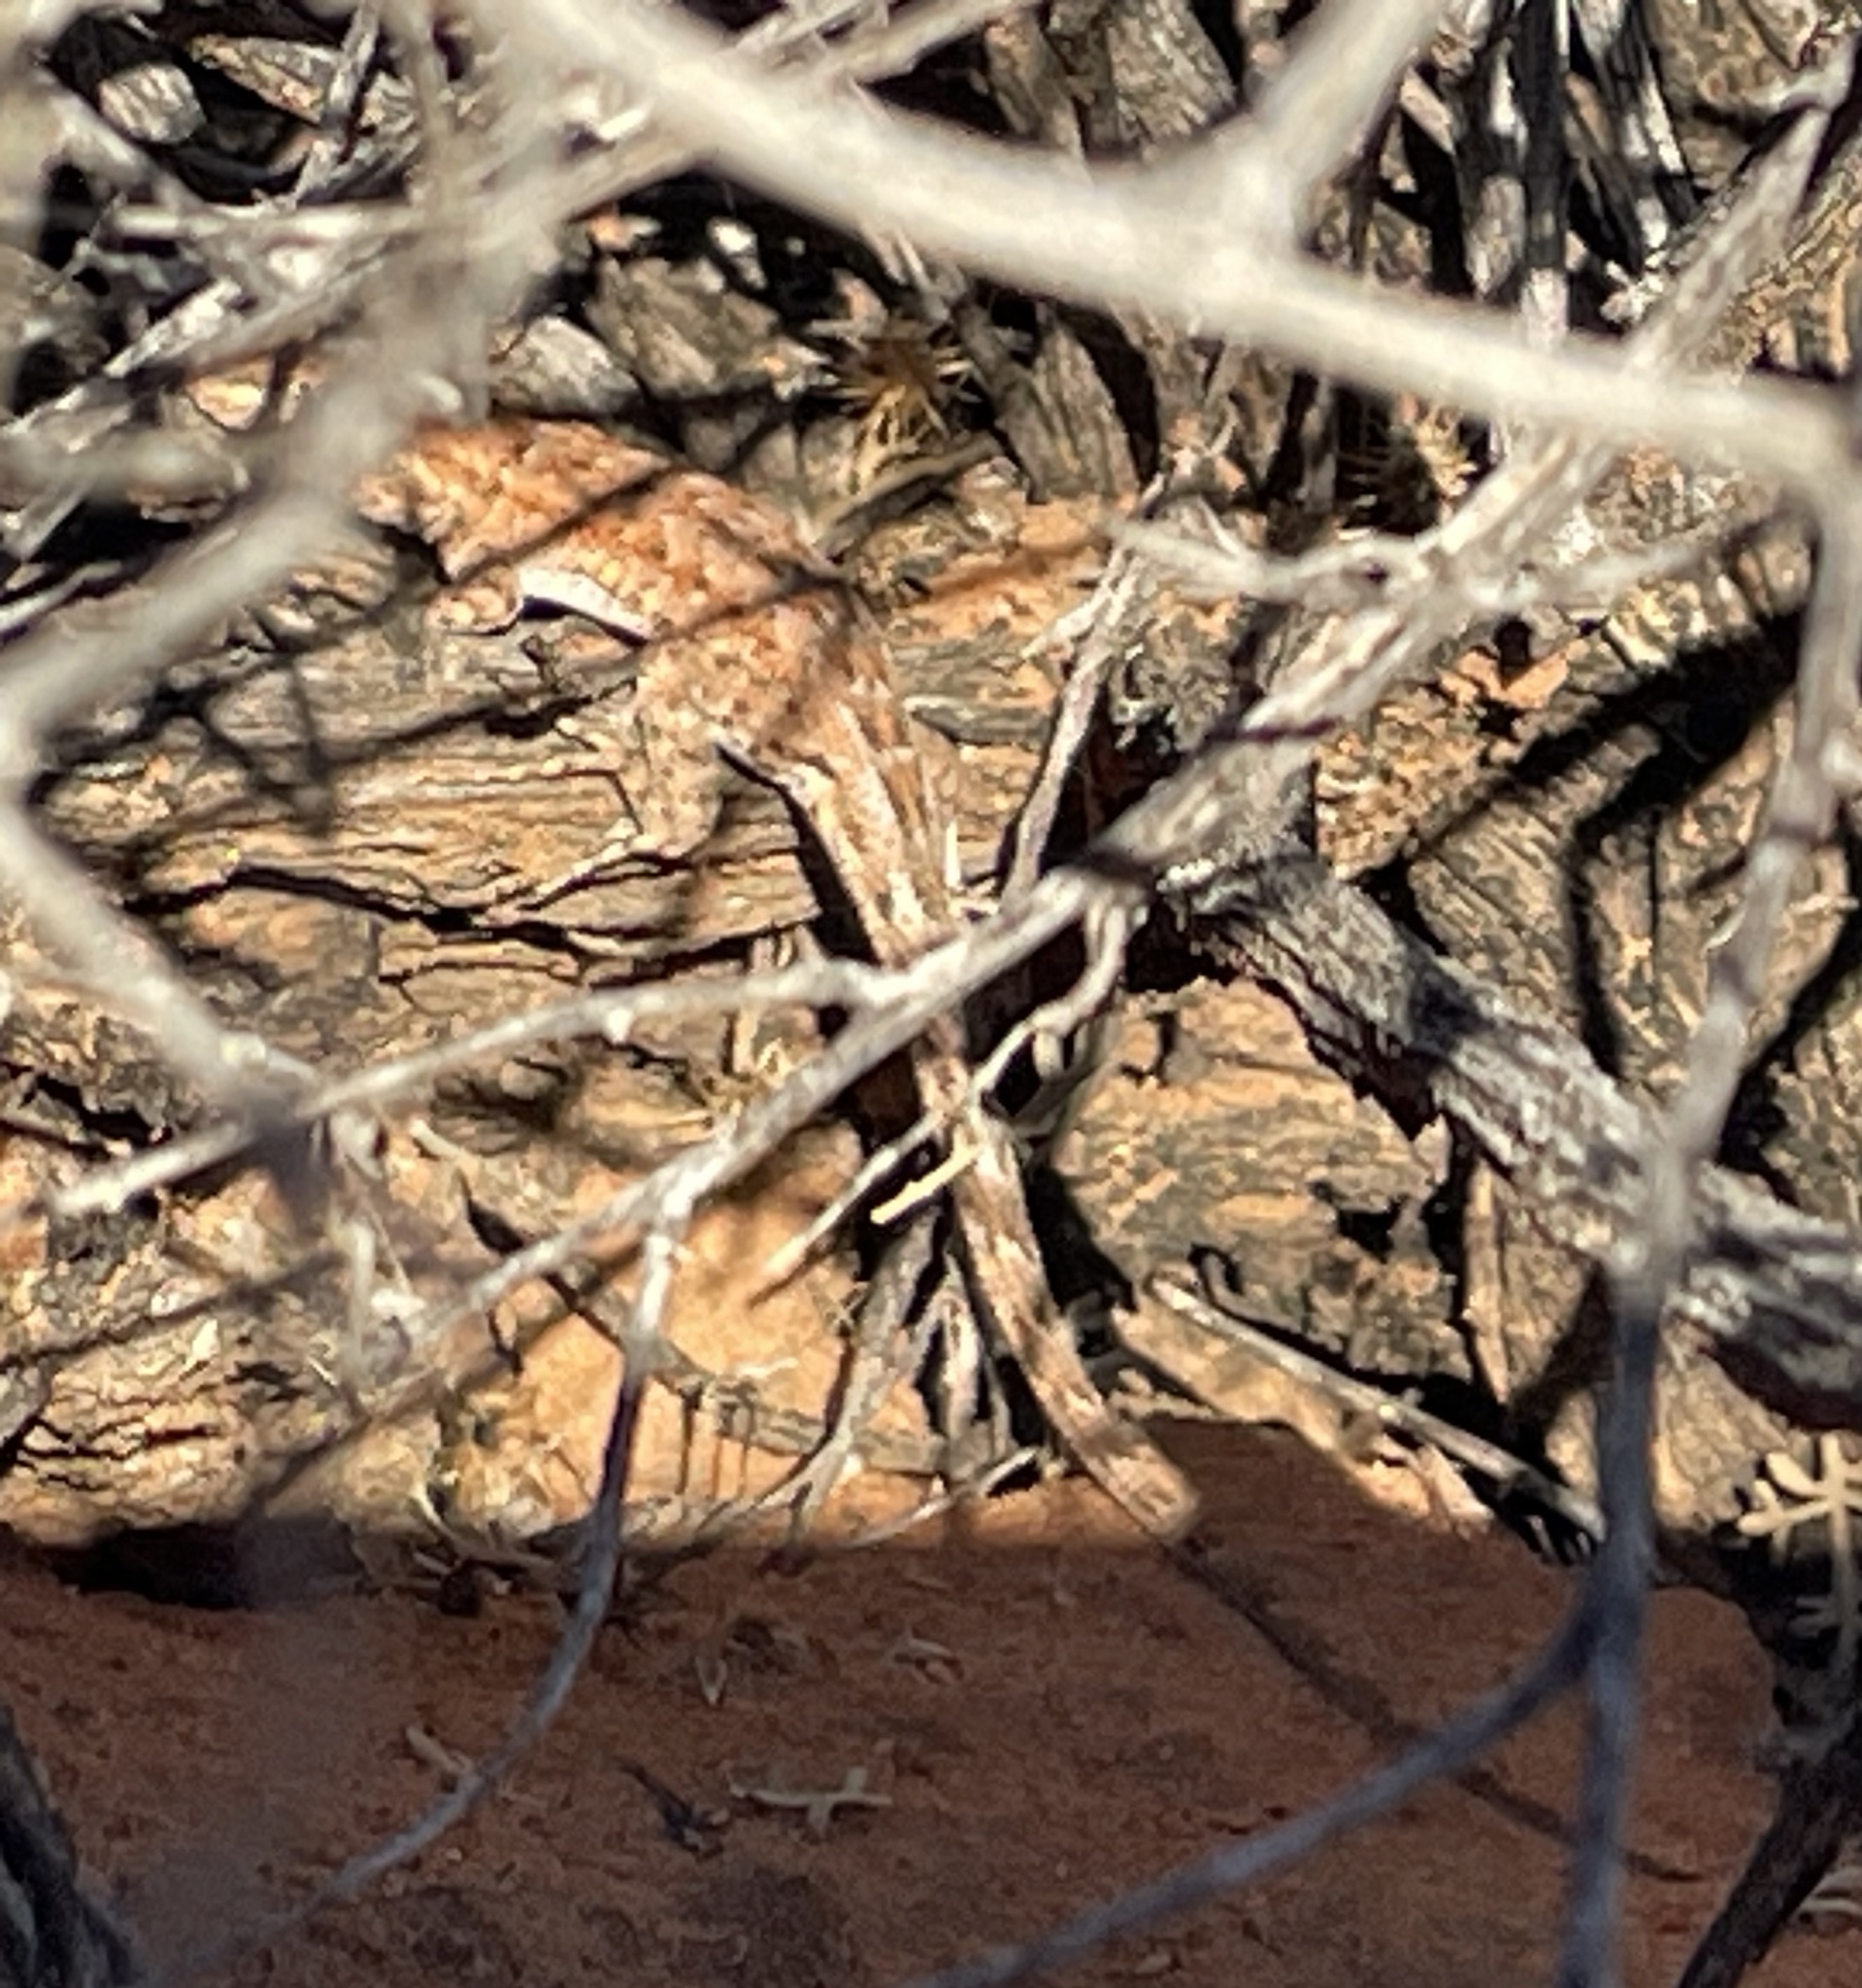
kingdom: Animalia
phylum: Chordata
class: Squamata
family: Phrynosomatidae
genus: Uta
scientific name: Uta stansburiana
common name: Side-blotched lizard
